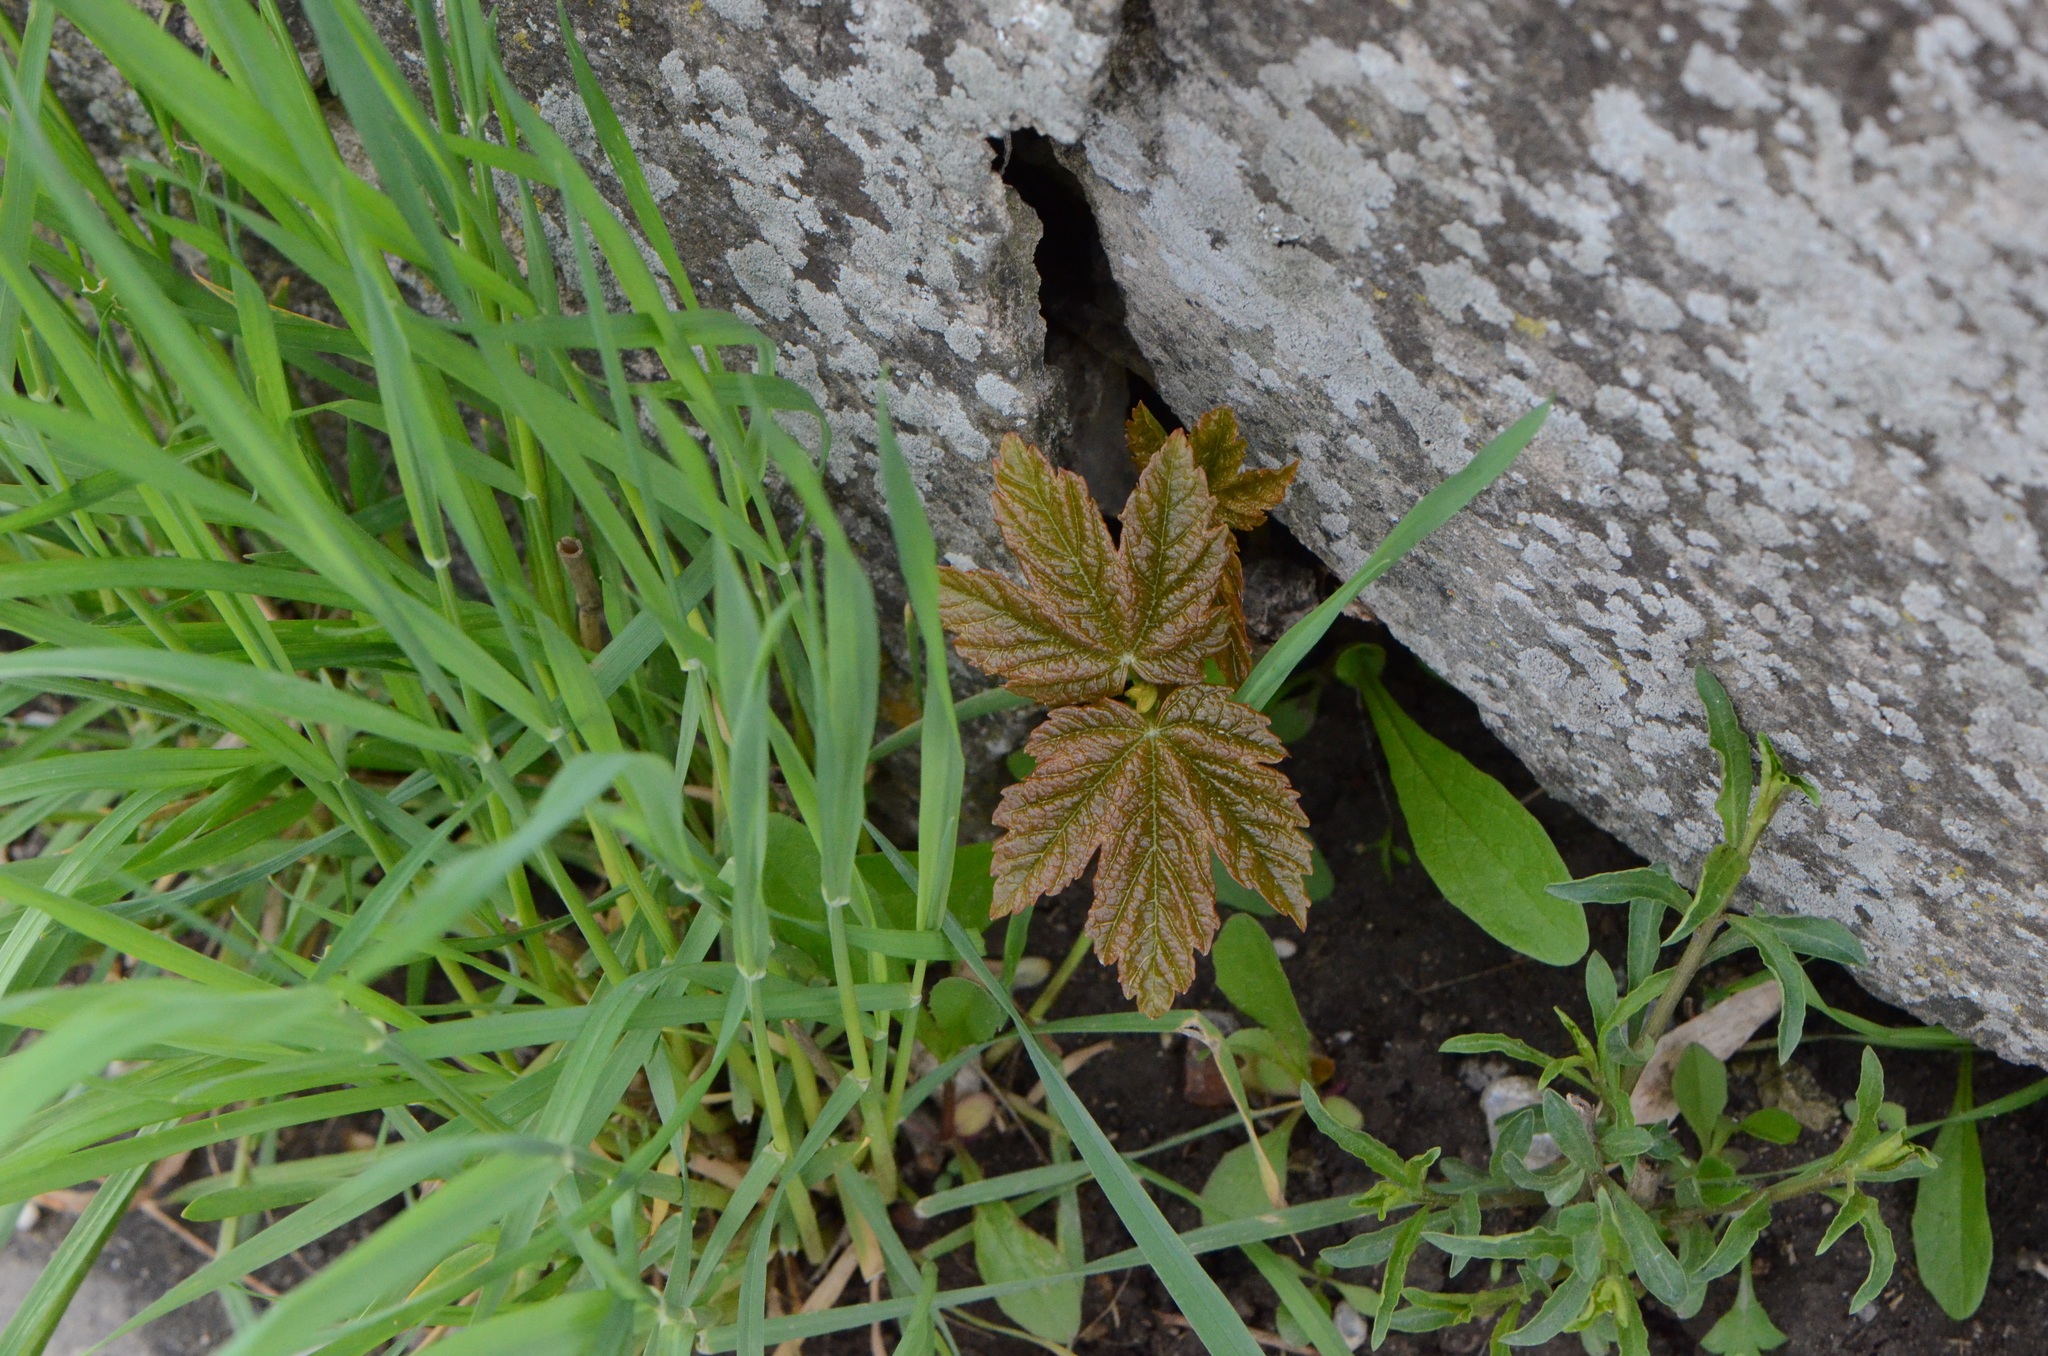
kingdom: Plantae
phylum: Tracheophyta
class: Magnoliopsida
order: Sapindales
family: Sapindaceae
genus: Acer
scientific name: Acer pseudoplatanus
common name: Sycamore
